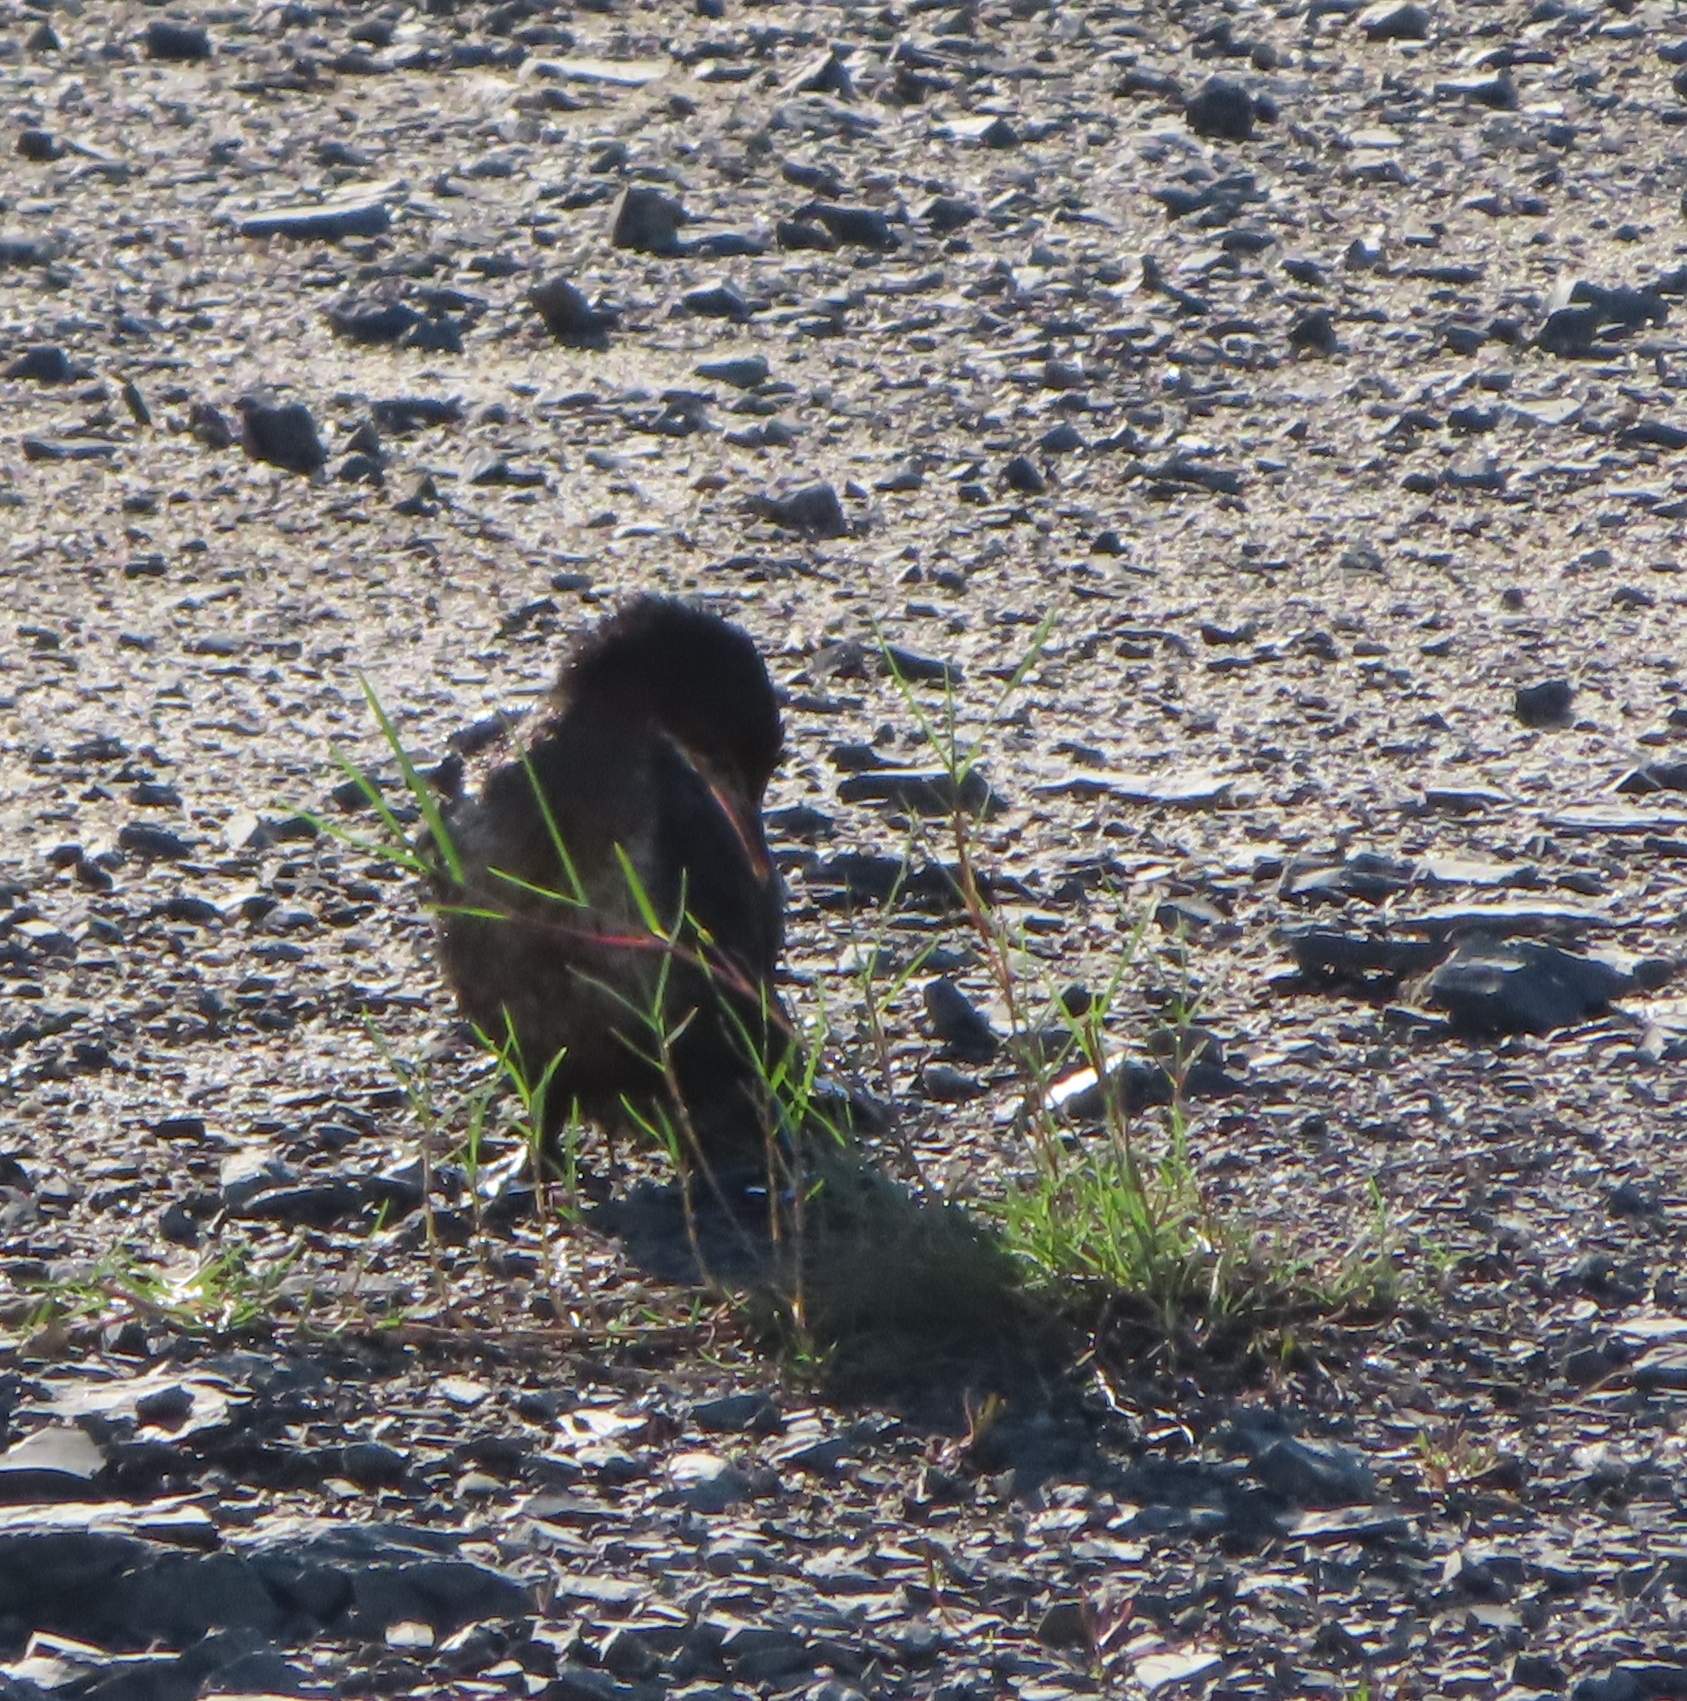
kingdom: Animalia
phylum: Chordata
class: Aves
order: Suliformes
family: Phalacrocoracidae
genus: Microcarbo
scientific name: Microcarbo africanus
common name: Long-tailed cormorant
